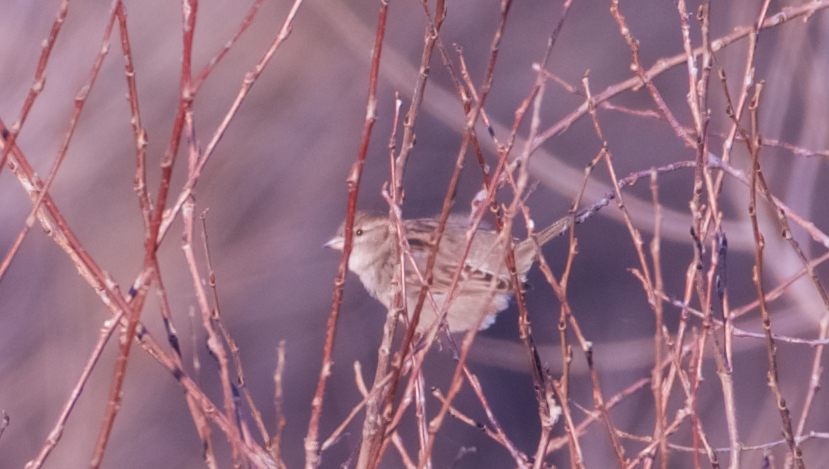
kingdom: Animalia
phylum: Chordata
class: Aves
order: Passeriformes
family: Passeridae
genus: Passer
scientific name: Passer domesticus
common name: House sparrow
